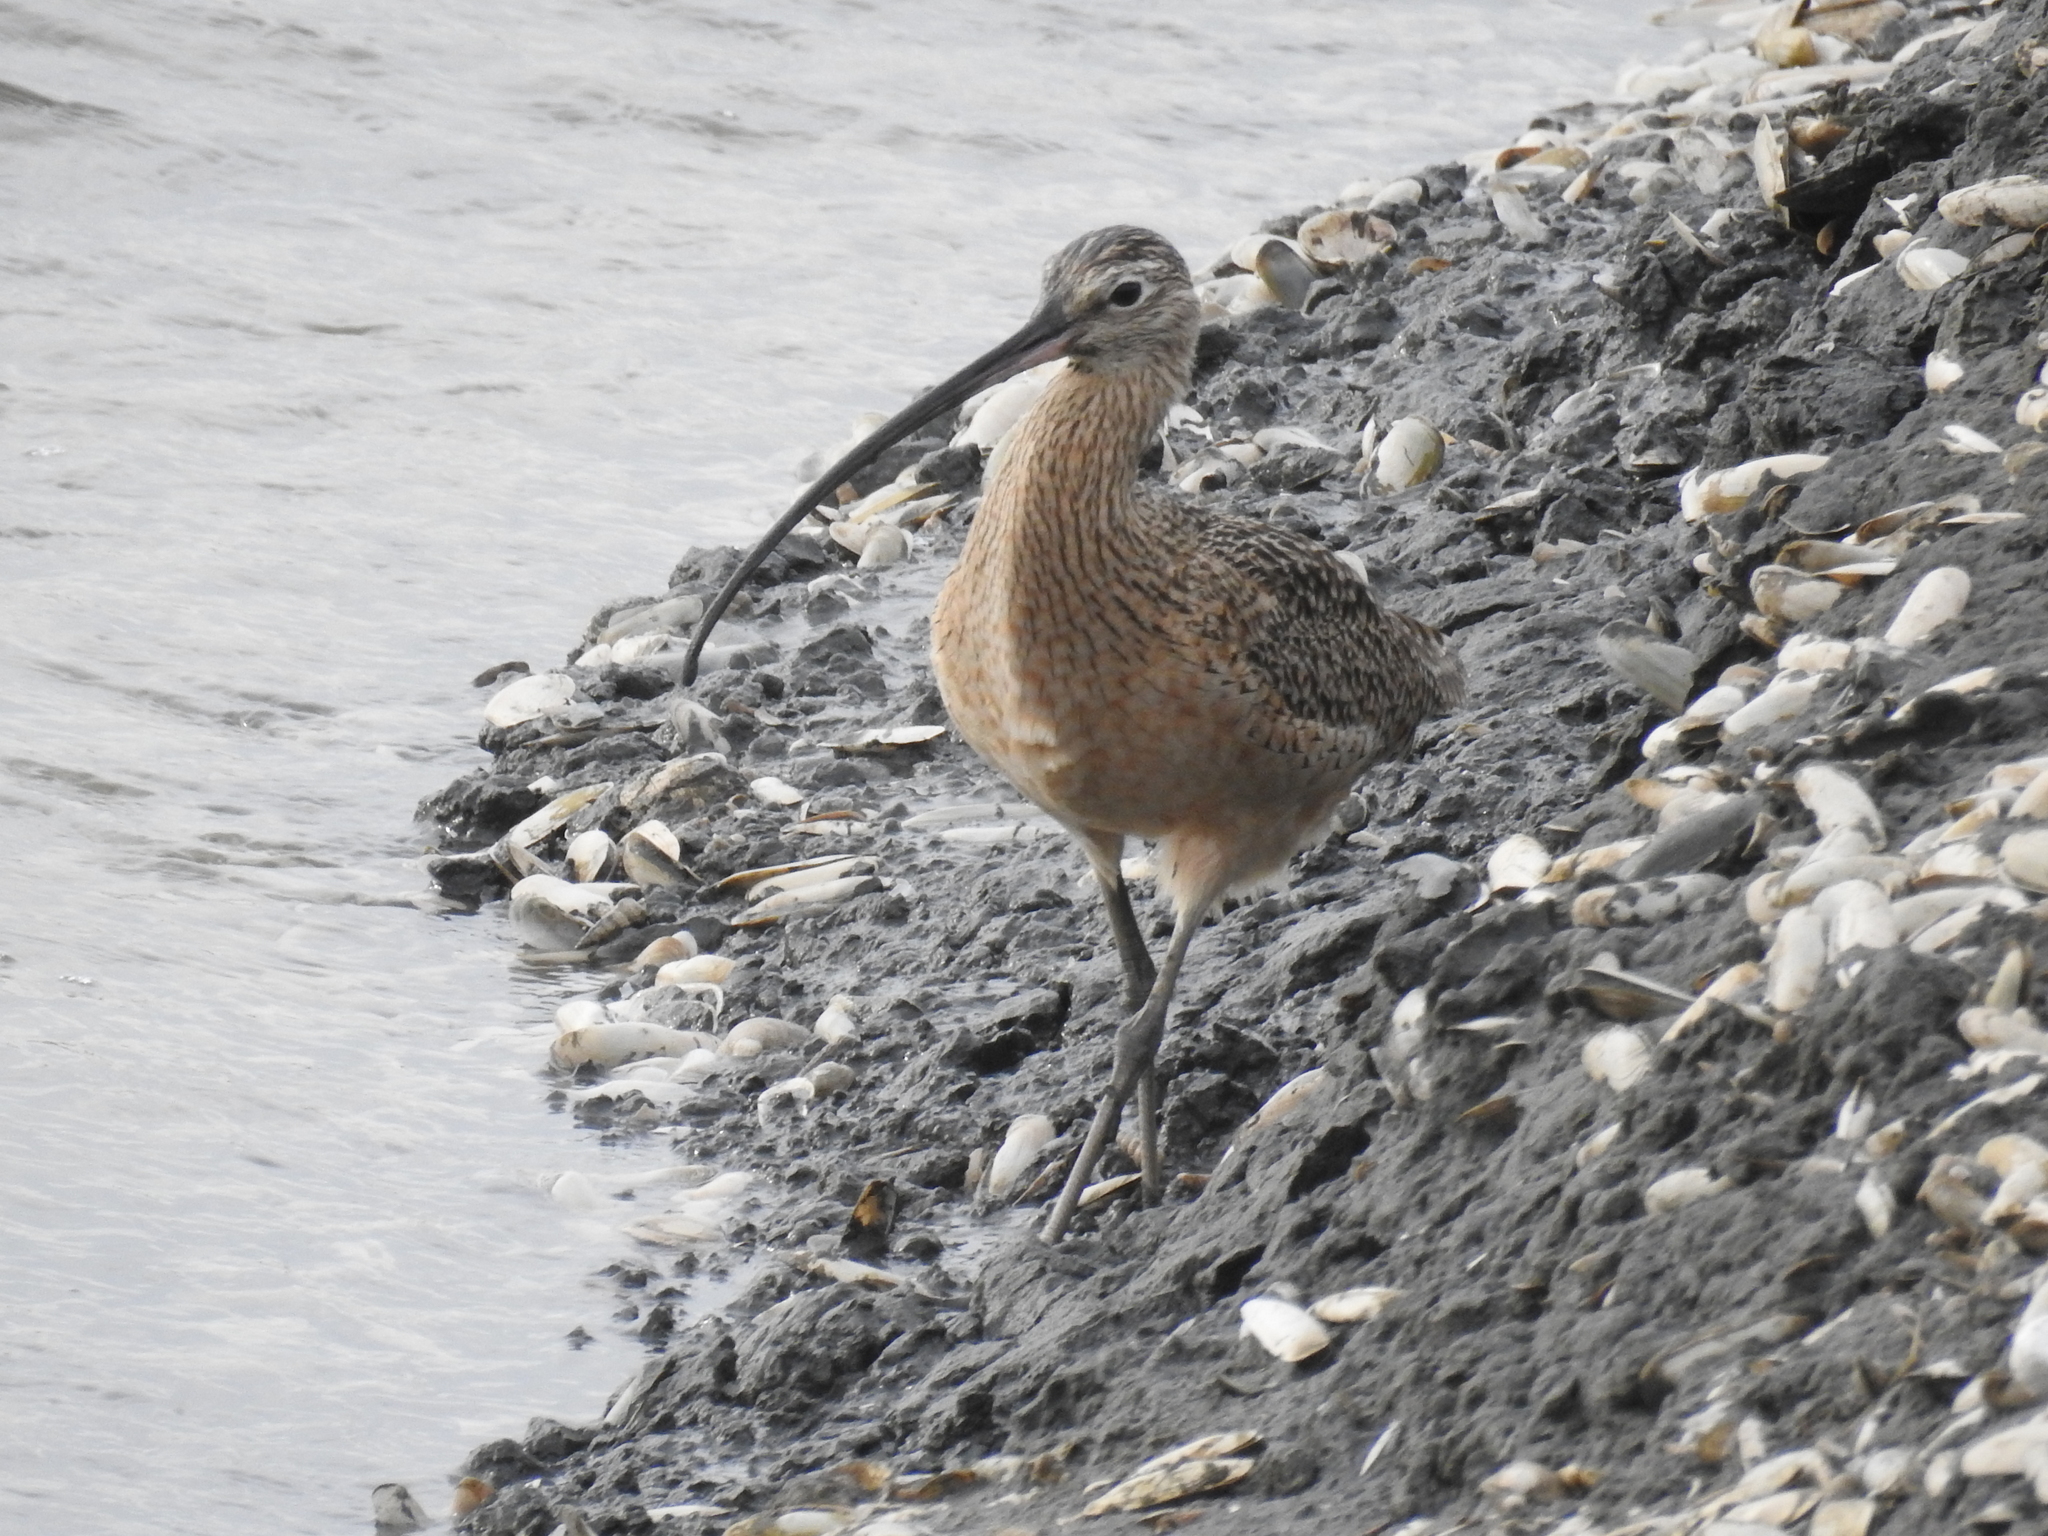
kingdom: Animalia
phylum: Chordata
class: Aves
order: Charadriiformes
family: Scolopacidae
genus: Numenius
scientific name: Numenius americanus
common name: Long-billed curlew
